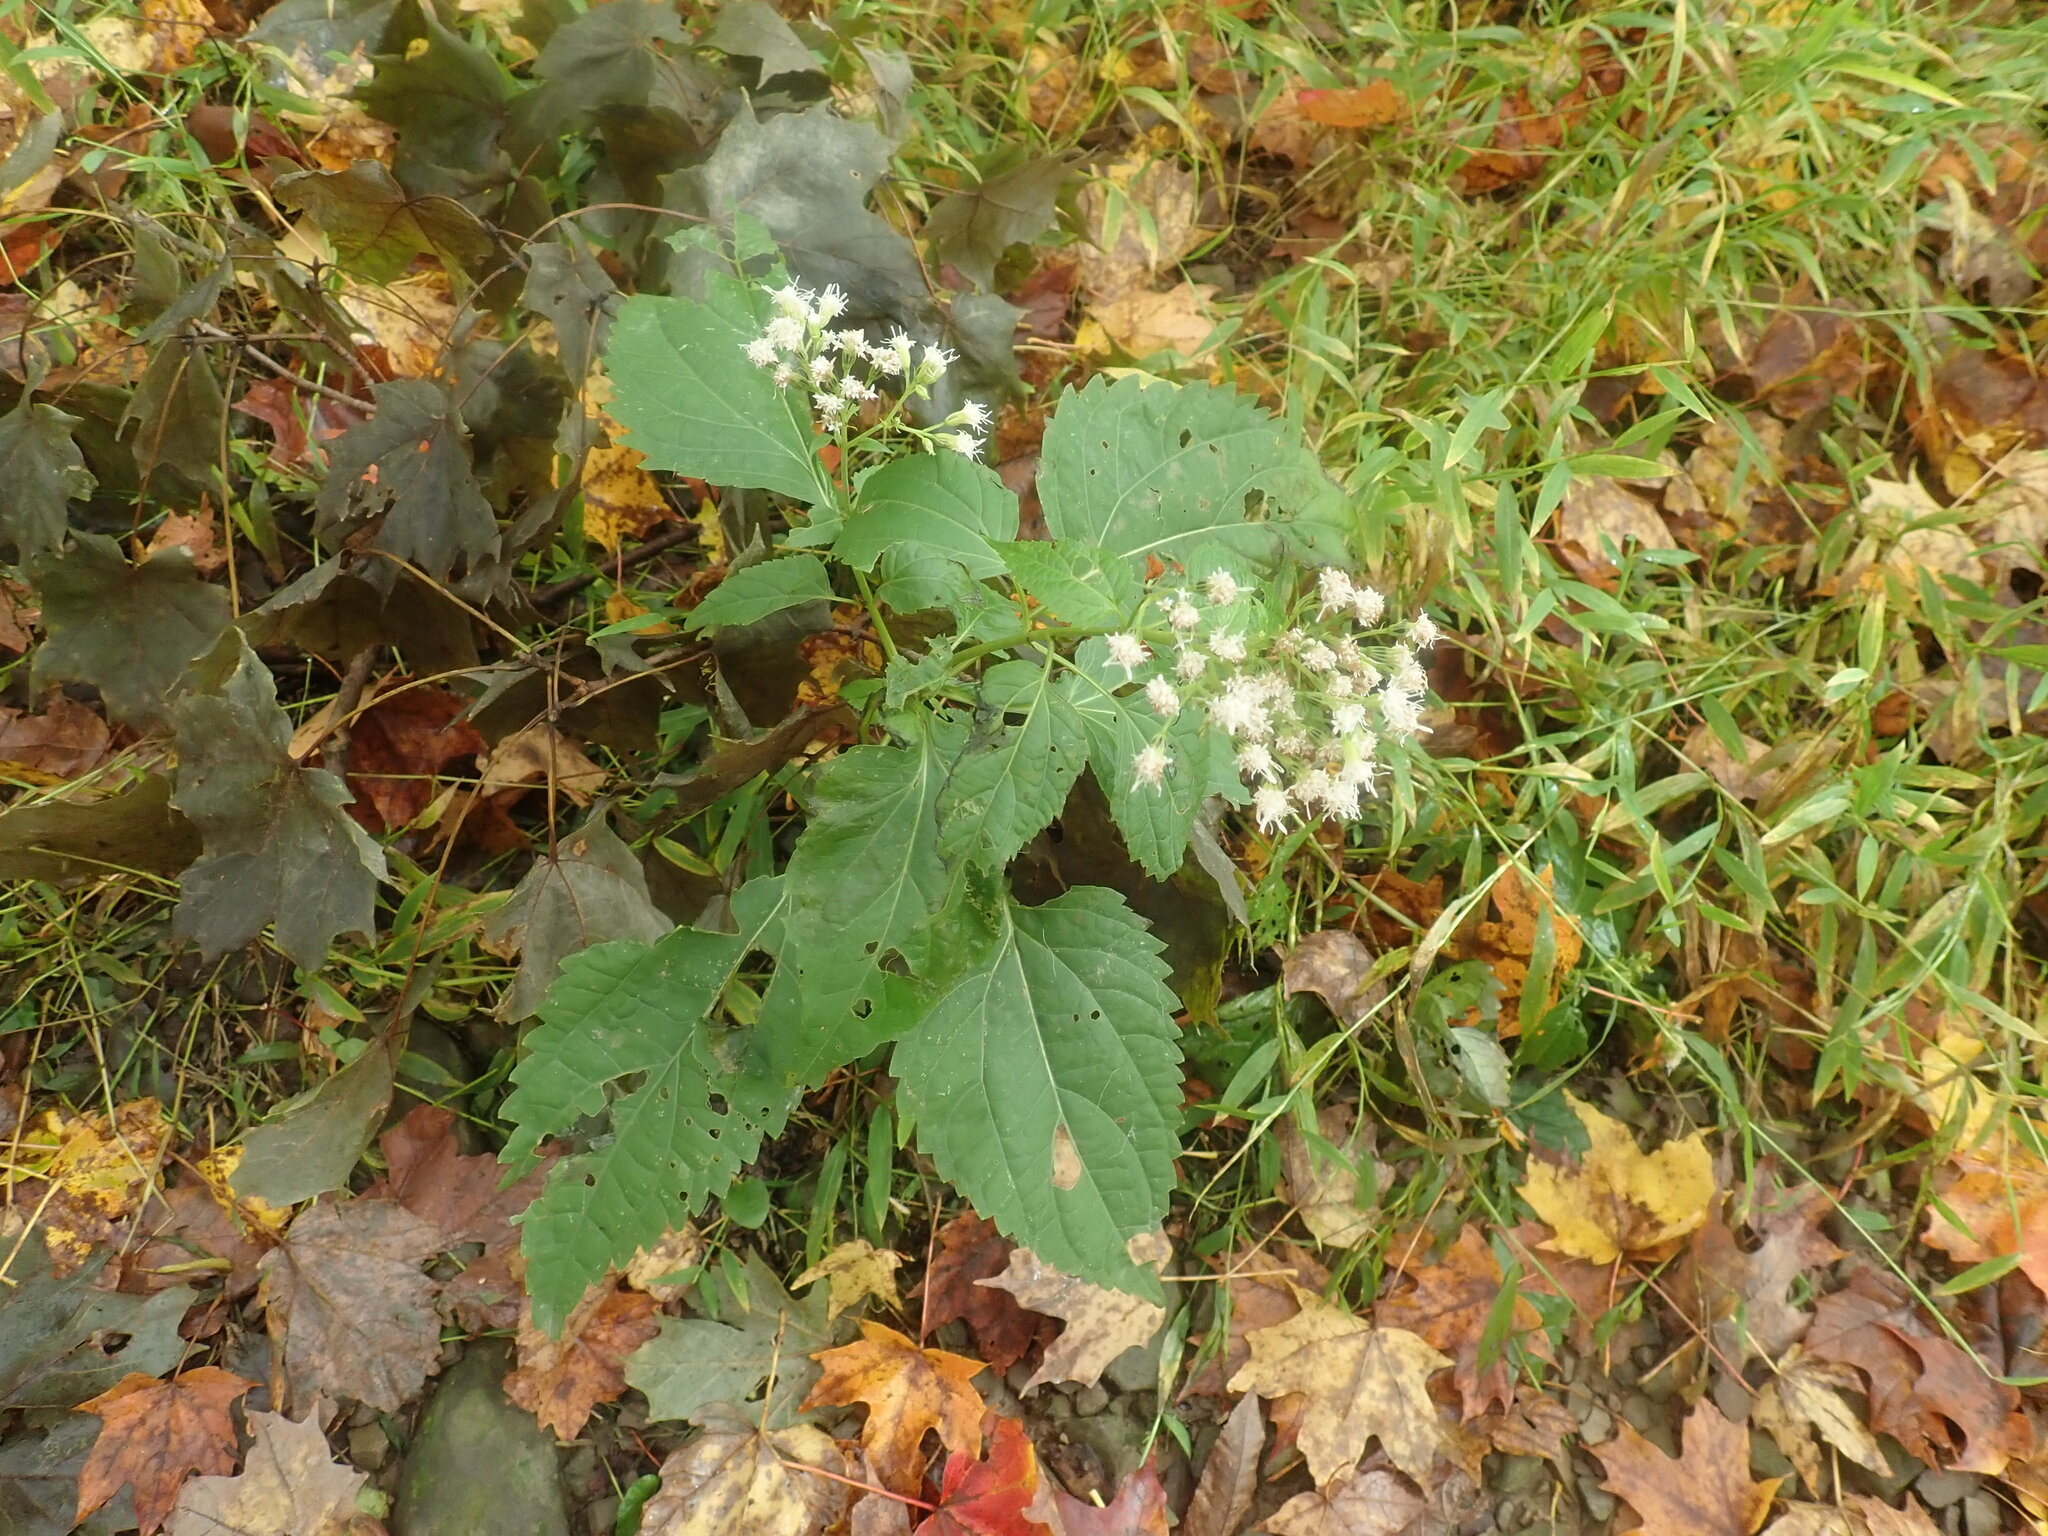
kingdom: Plantae
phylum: Tracheophyta
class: Magnoliopsida
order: Asterales
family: Asteraceae
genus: Ageratina
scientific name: Ageratina altissima
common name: White snakeroot
